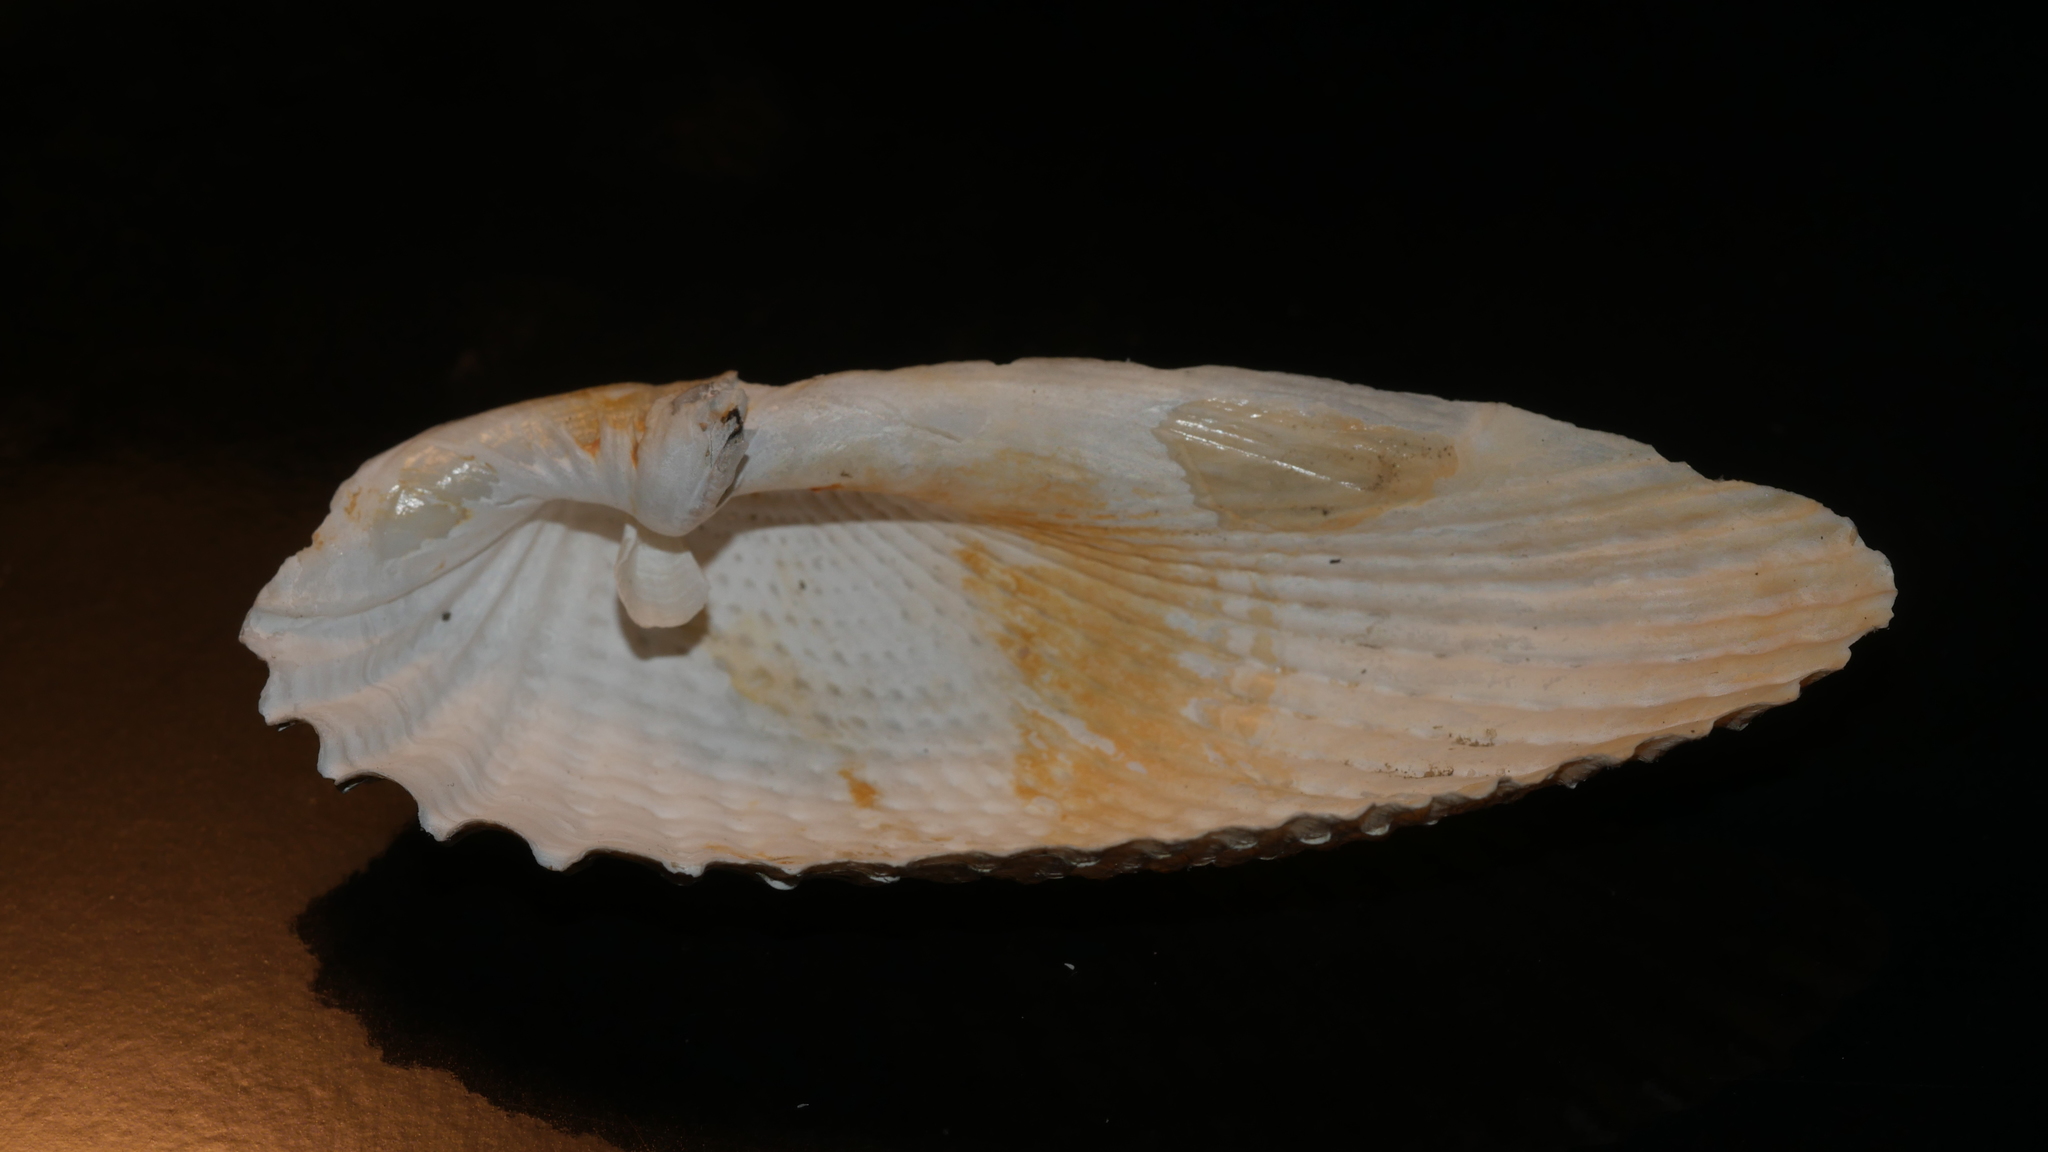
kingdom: Animalia
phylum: Mollusca
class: Bivalvia
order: Myida
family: Pholadidae
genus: Cyrtopleura
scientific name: Cyrtopleura costata
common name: Angel wing
